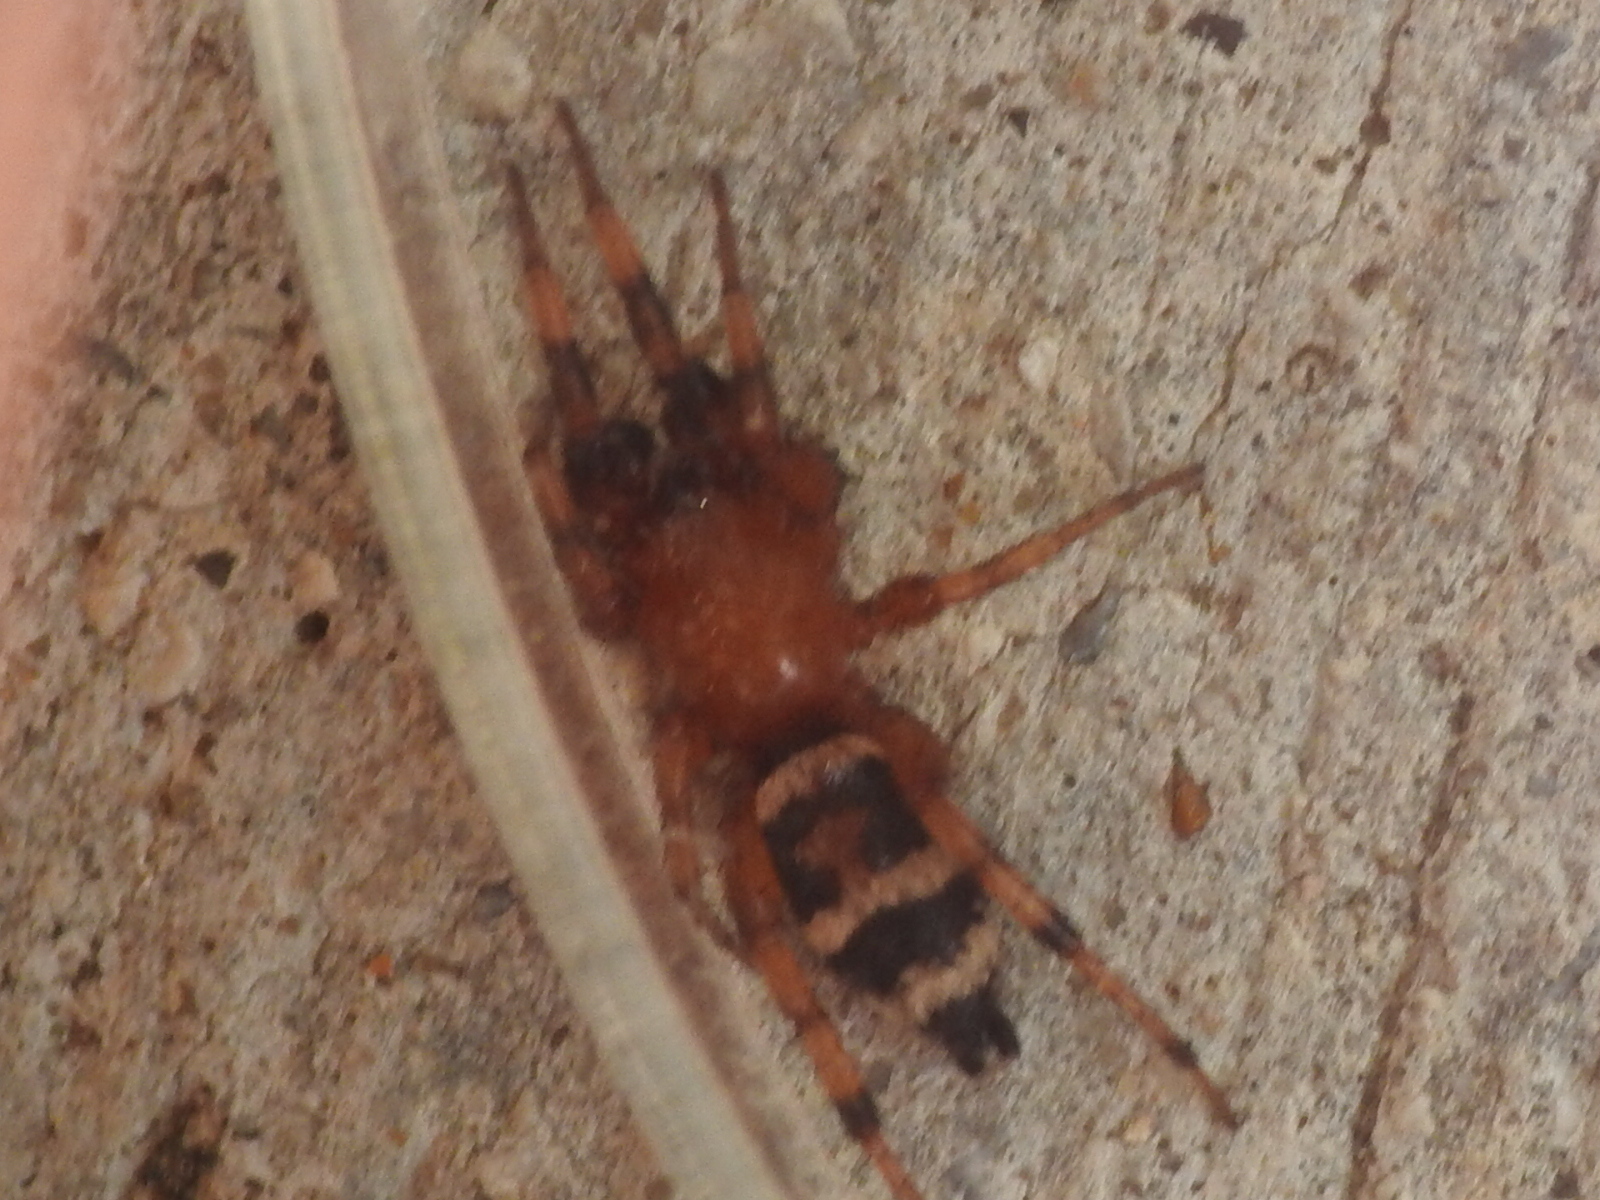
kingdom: Animalia
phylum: Arthropoda
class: Arachnida
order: Araneae
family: Gnaphosidae
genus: Sergiolus
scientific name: Sergiolus capulatus
